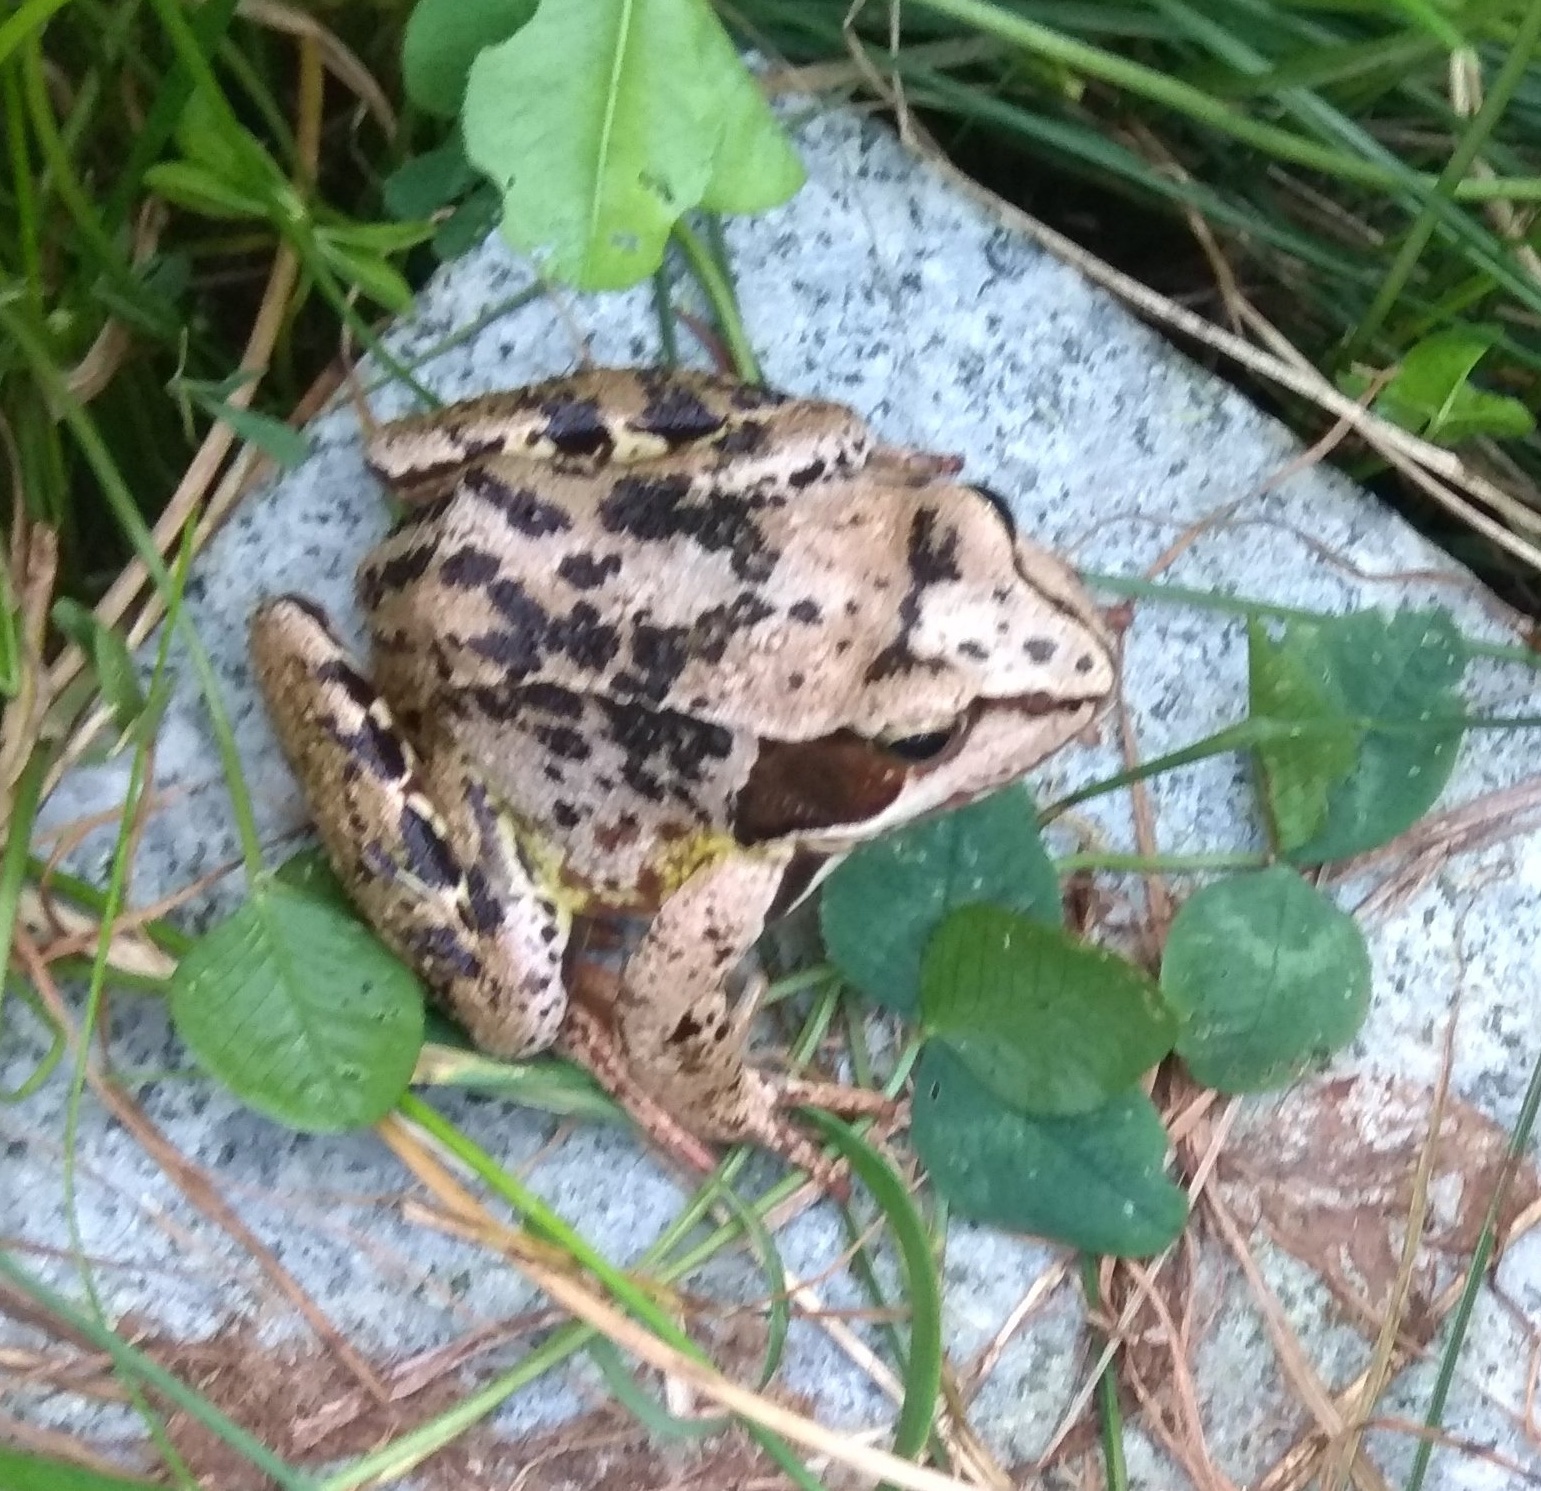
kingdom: Animalia
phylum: Chordata
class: Amphibia
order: Anura
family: Ranidae
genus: Rana
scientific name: Rana temporaria
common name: Common frog
